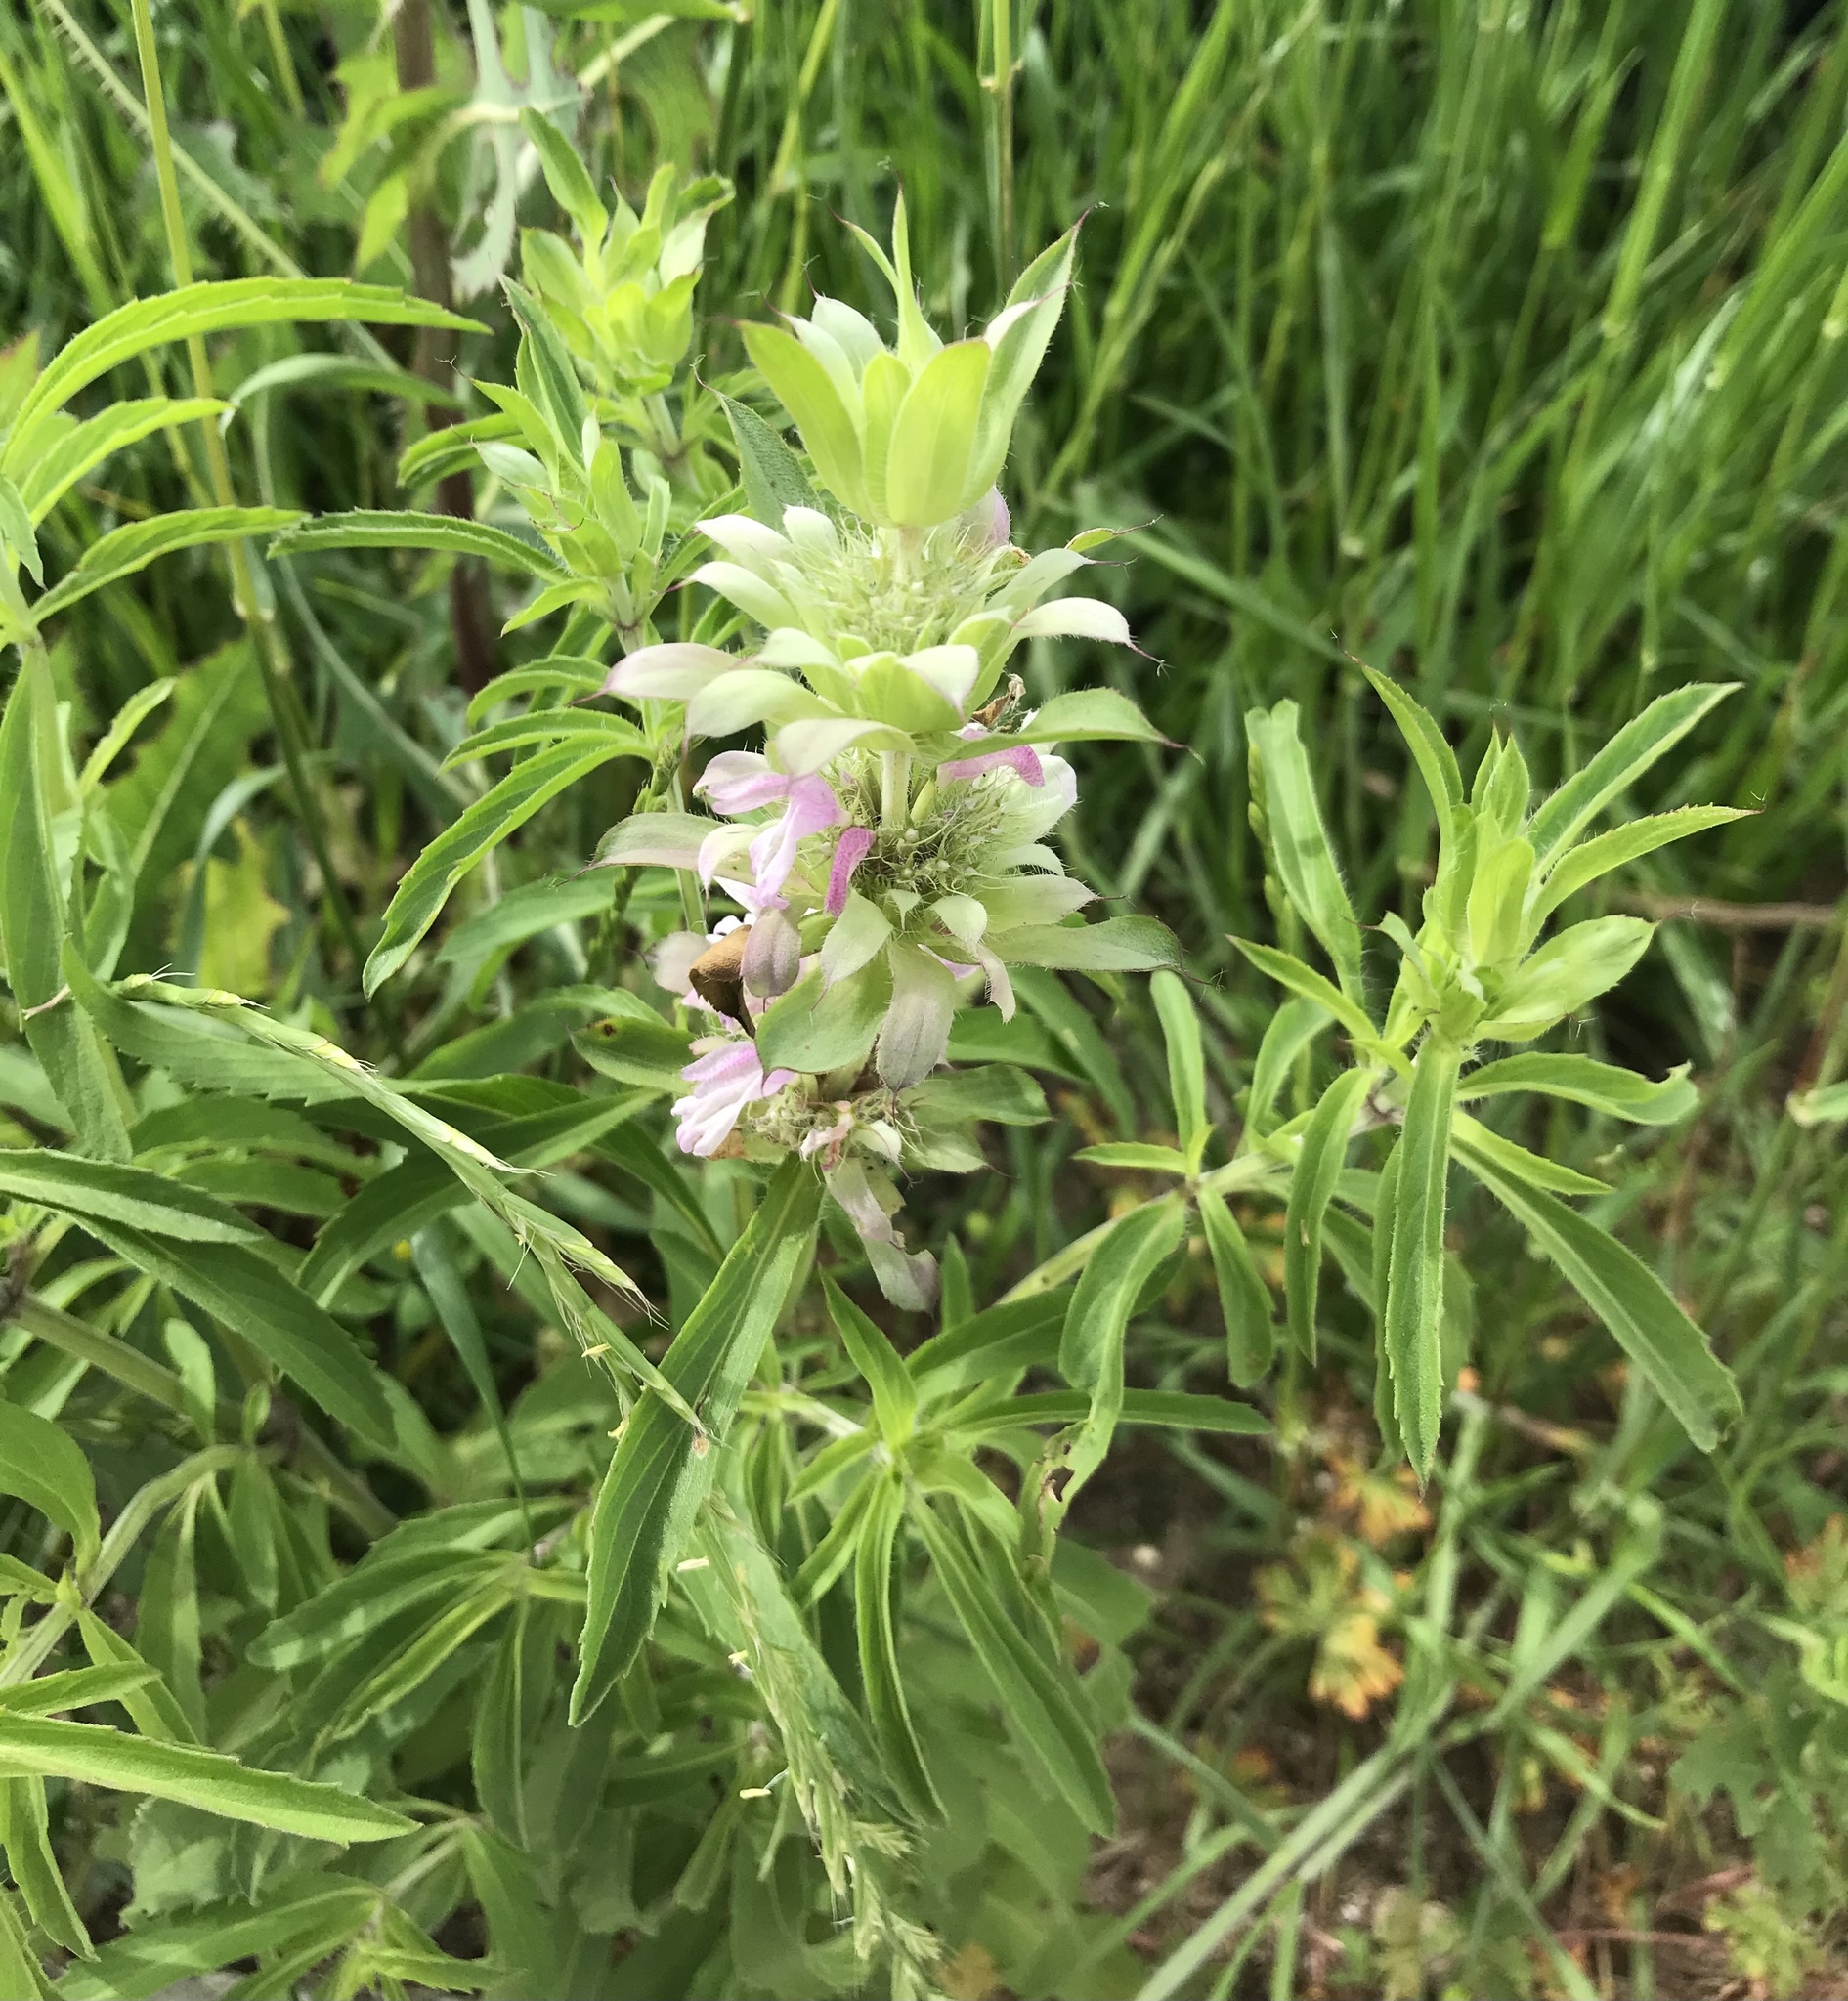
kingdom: Plantae
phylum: Tracheophyta
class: Magnoliopsida
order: Lamiales
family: Lamiaceae
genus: Monarda
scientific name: Monarda citriodora
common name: Lemon beebalm
